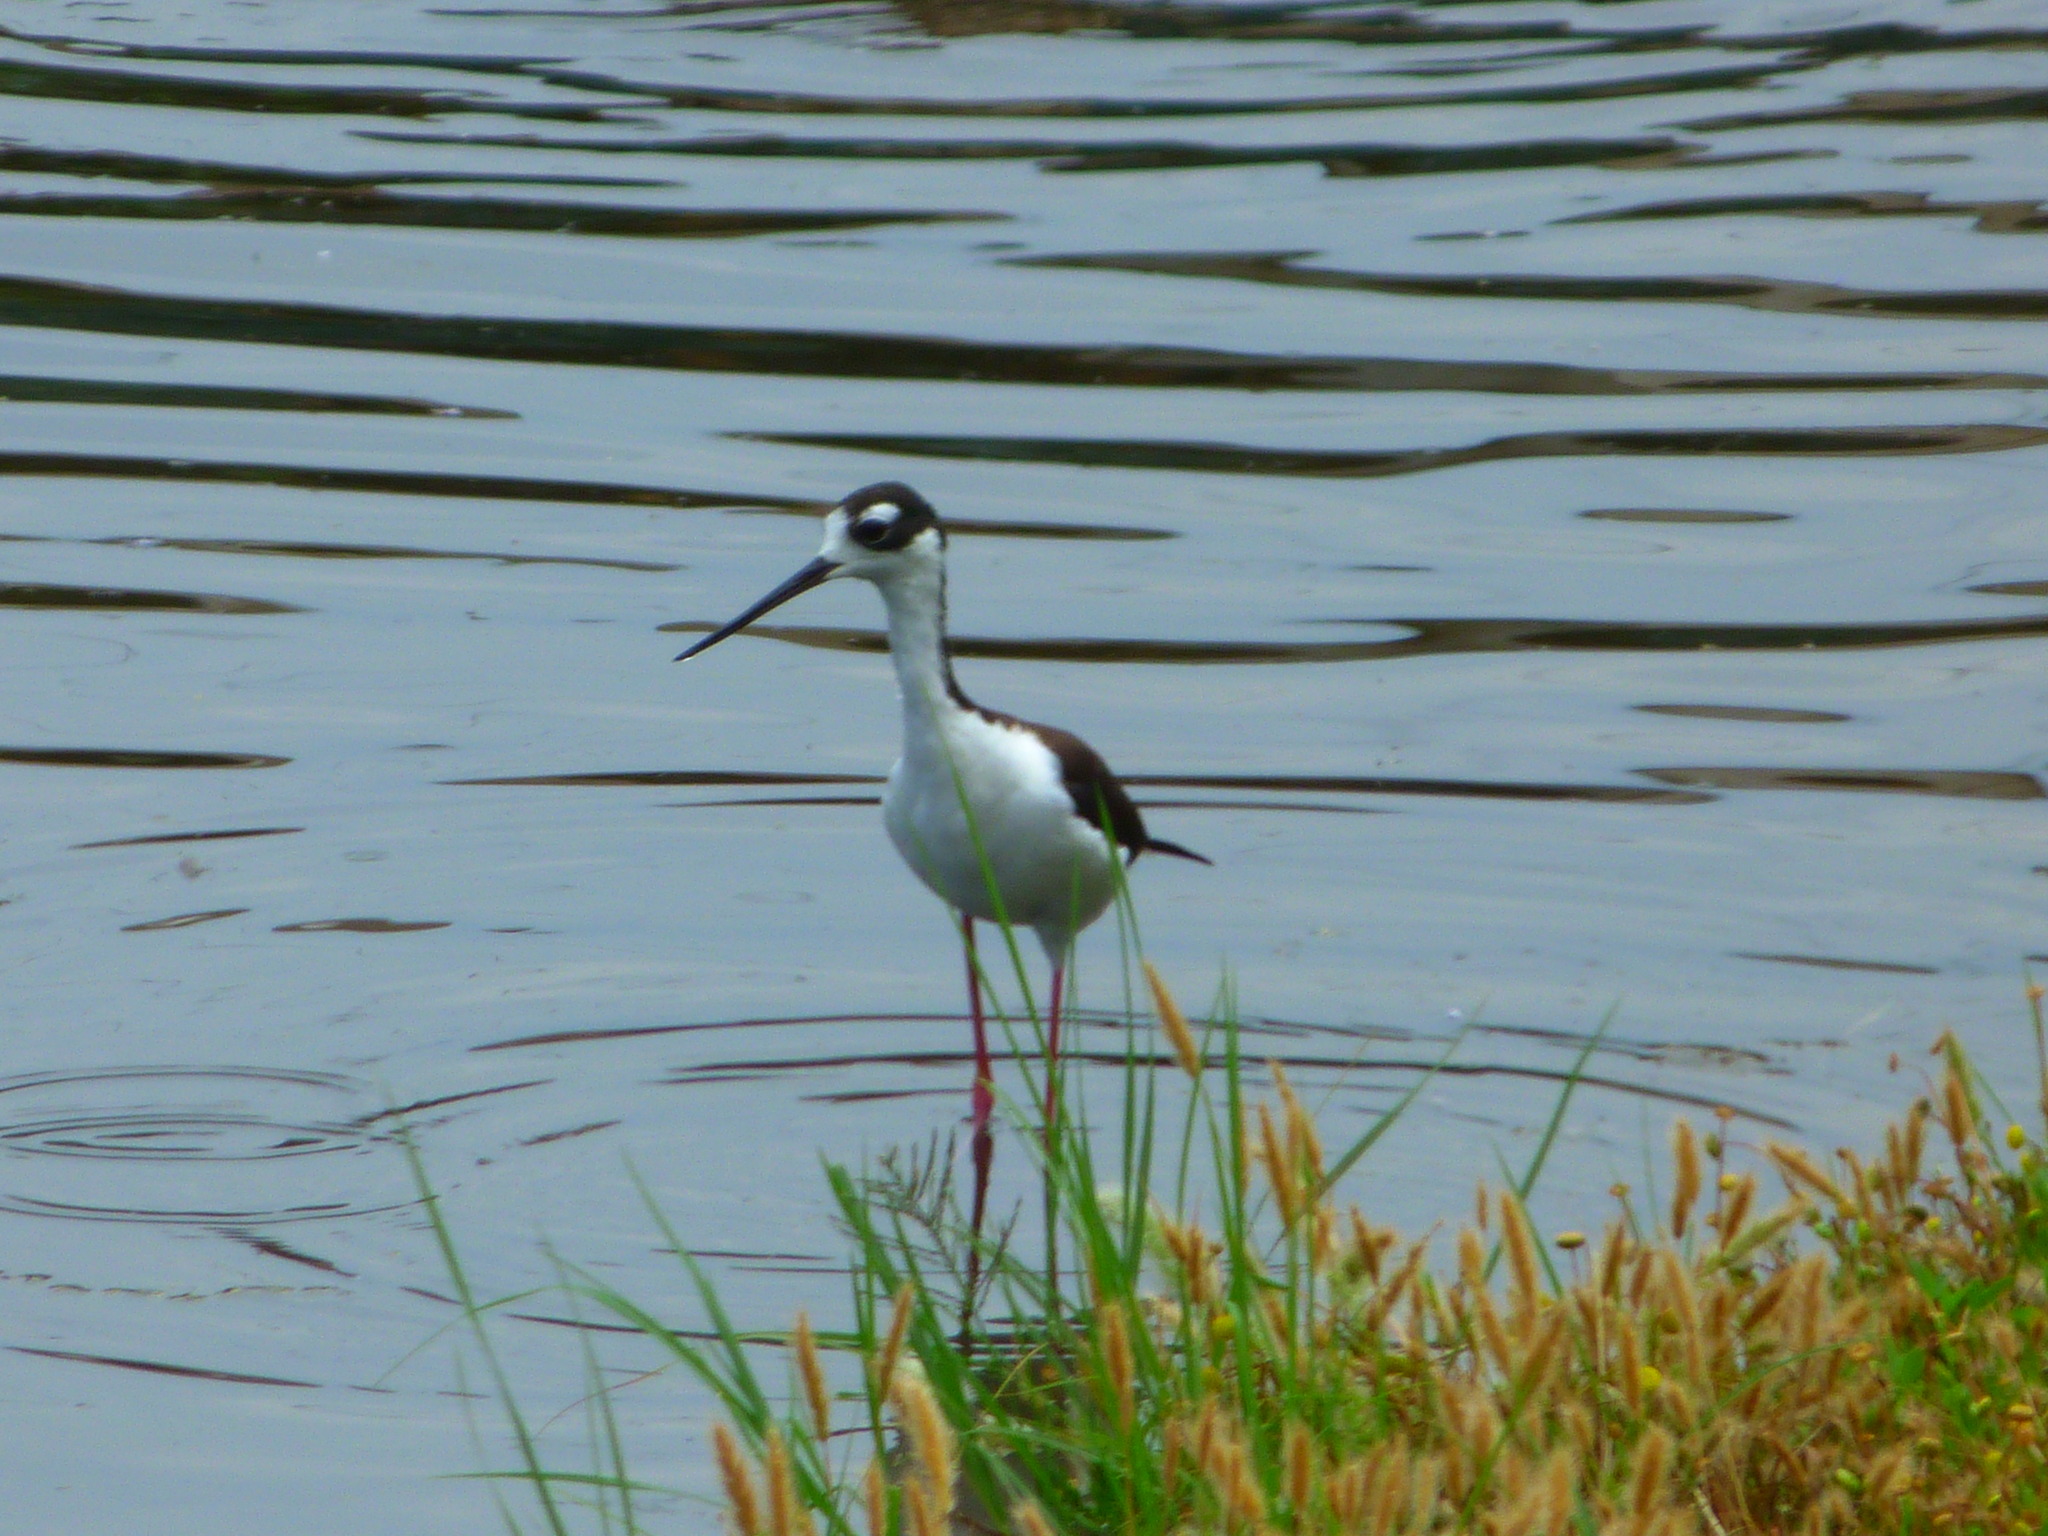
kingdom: Animalia
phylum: Chordata
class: Aves
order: Charadriiformes
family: Recurvirostridae
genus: Himantopus
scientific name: Himantopus mexicanus
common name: Black-necked stilt
